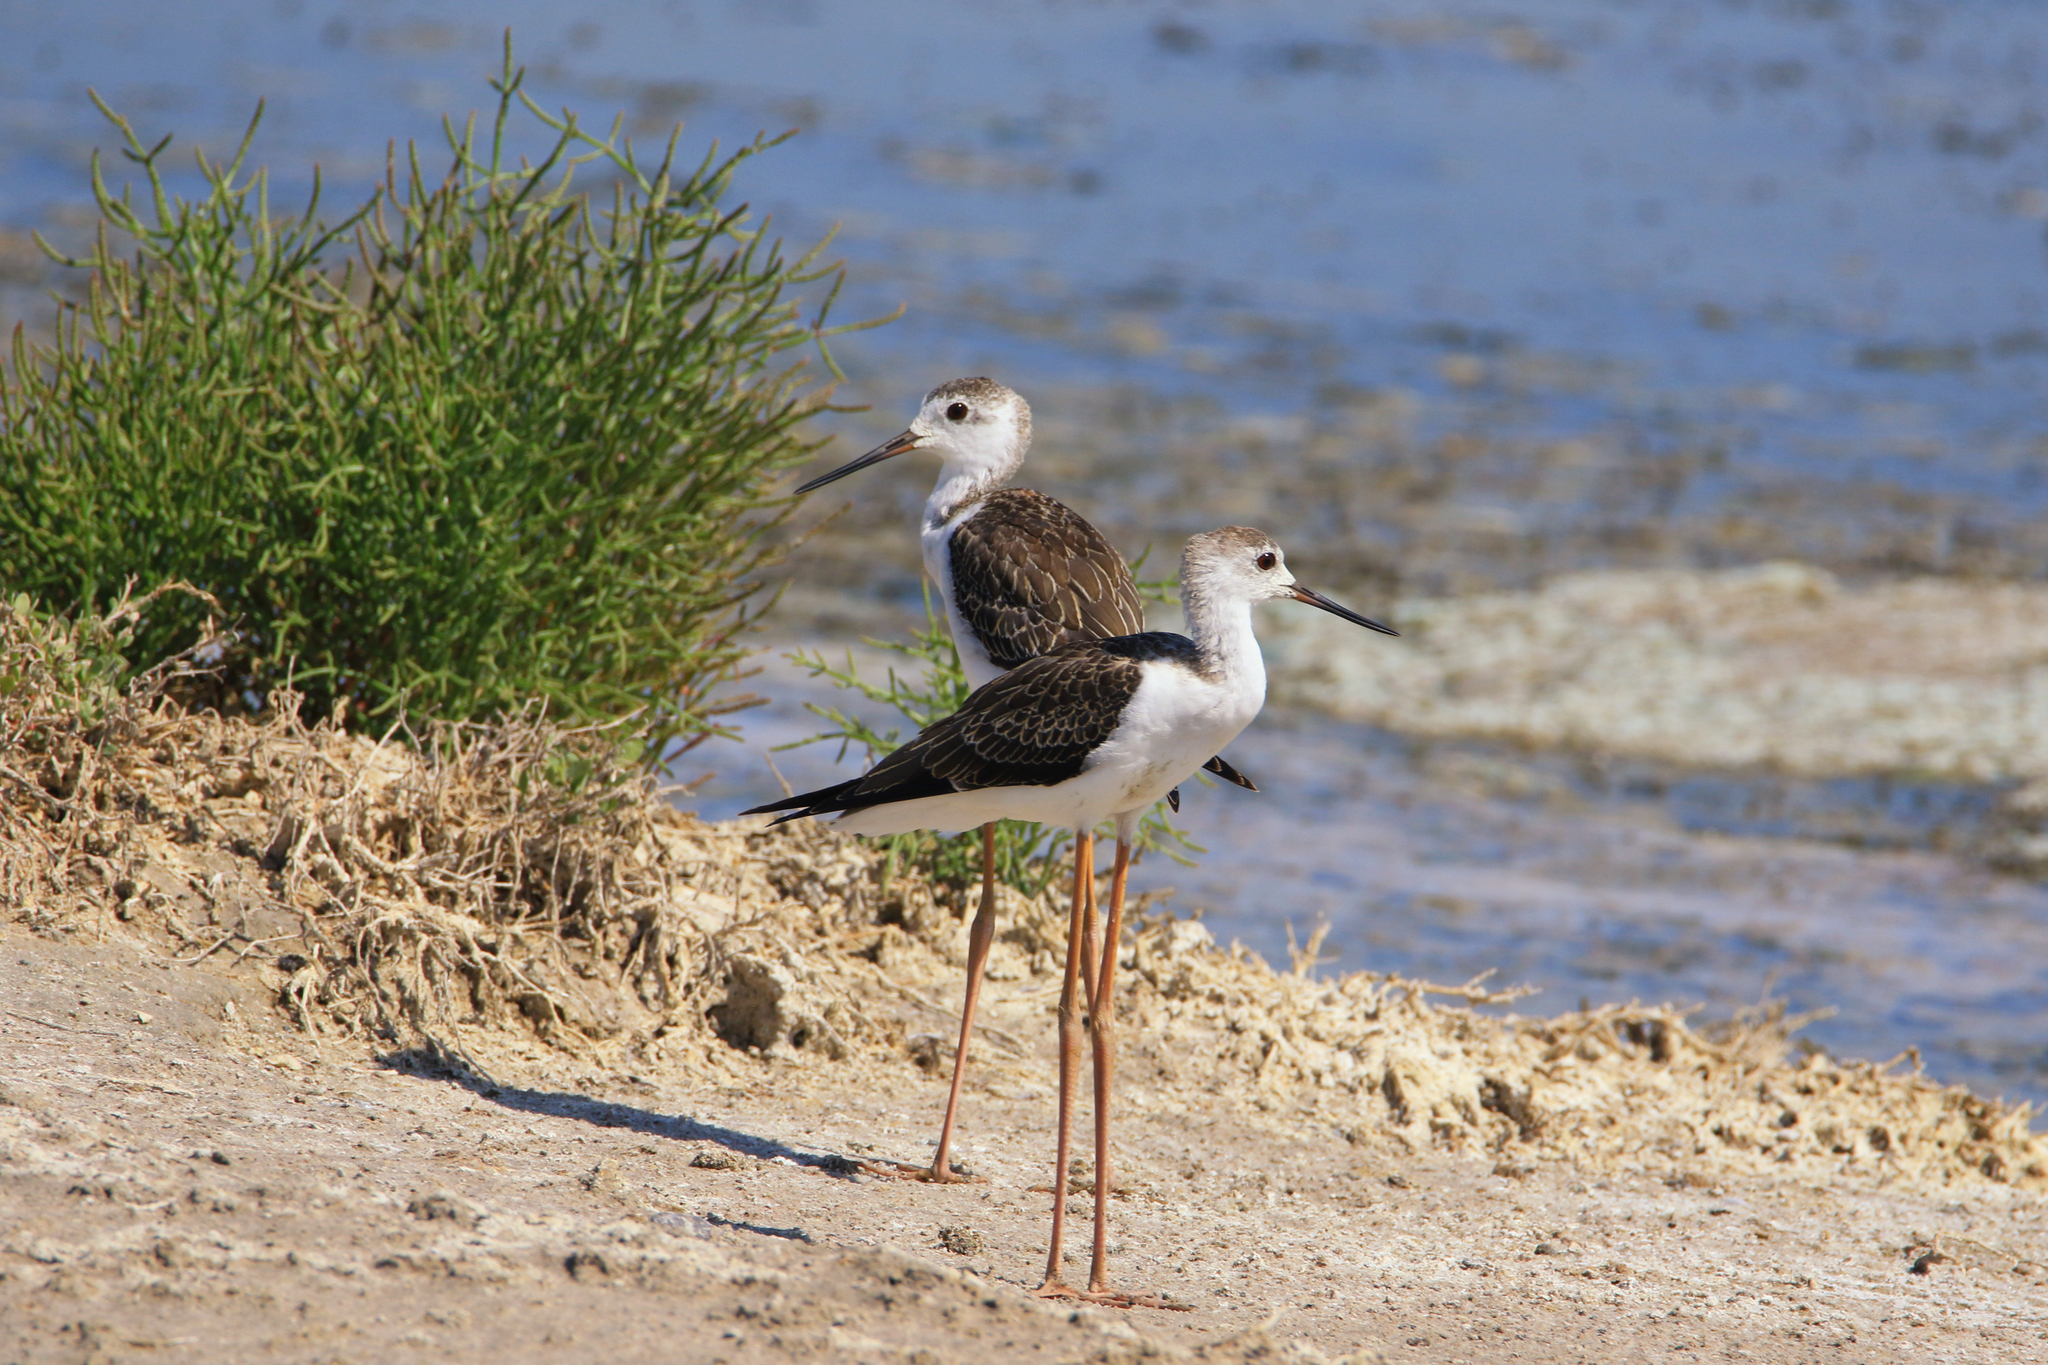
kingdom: Animalia
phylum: Chordata
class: Aves
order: Charadriiformes
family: Recurvirostridae
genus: Himantopus
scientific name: Himantopus himantopus
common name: Black-winged stilt
